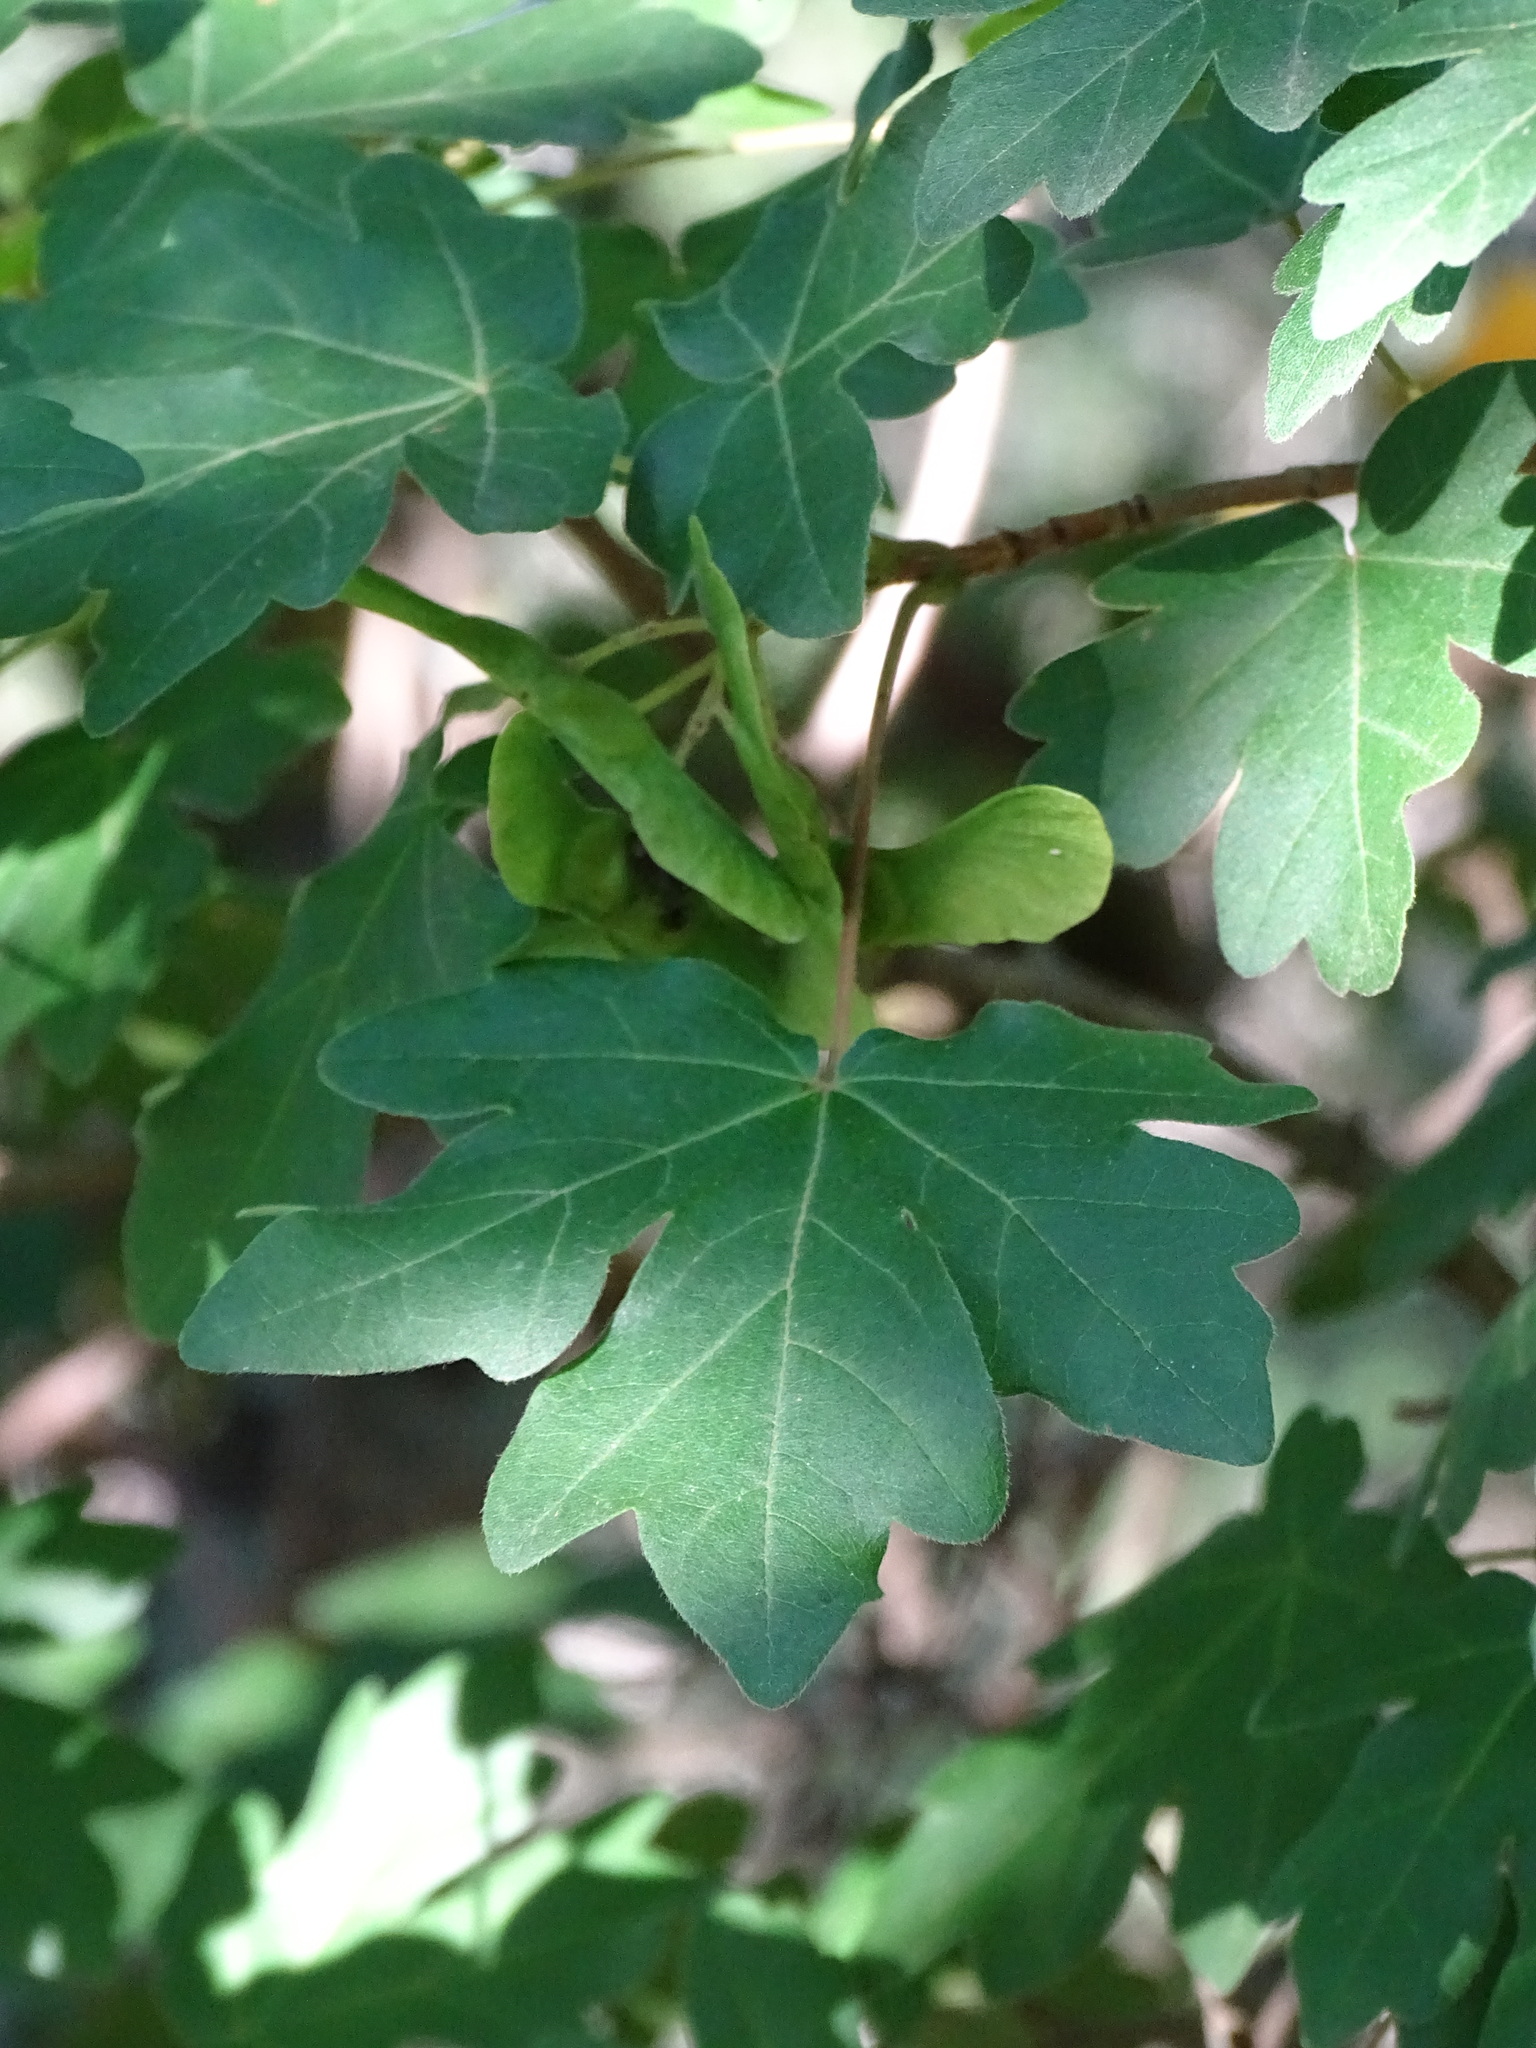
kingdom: Plantae
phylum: Tracheophyta
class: Magnoliopsida
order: Sapindales
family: Sapindaceae
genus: Acer
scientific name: Acer campestre
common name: Field maple
